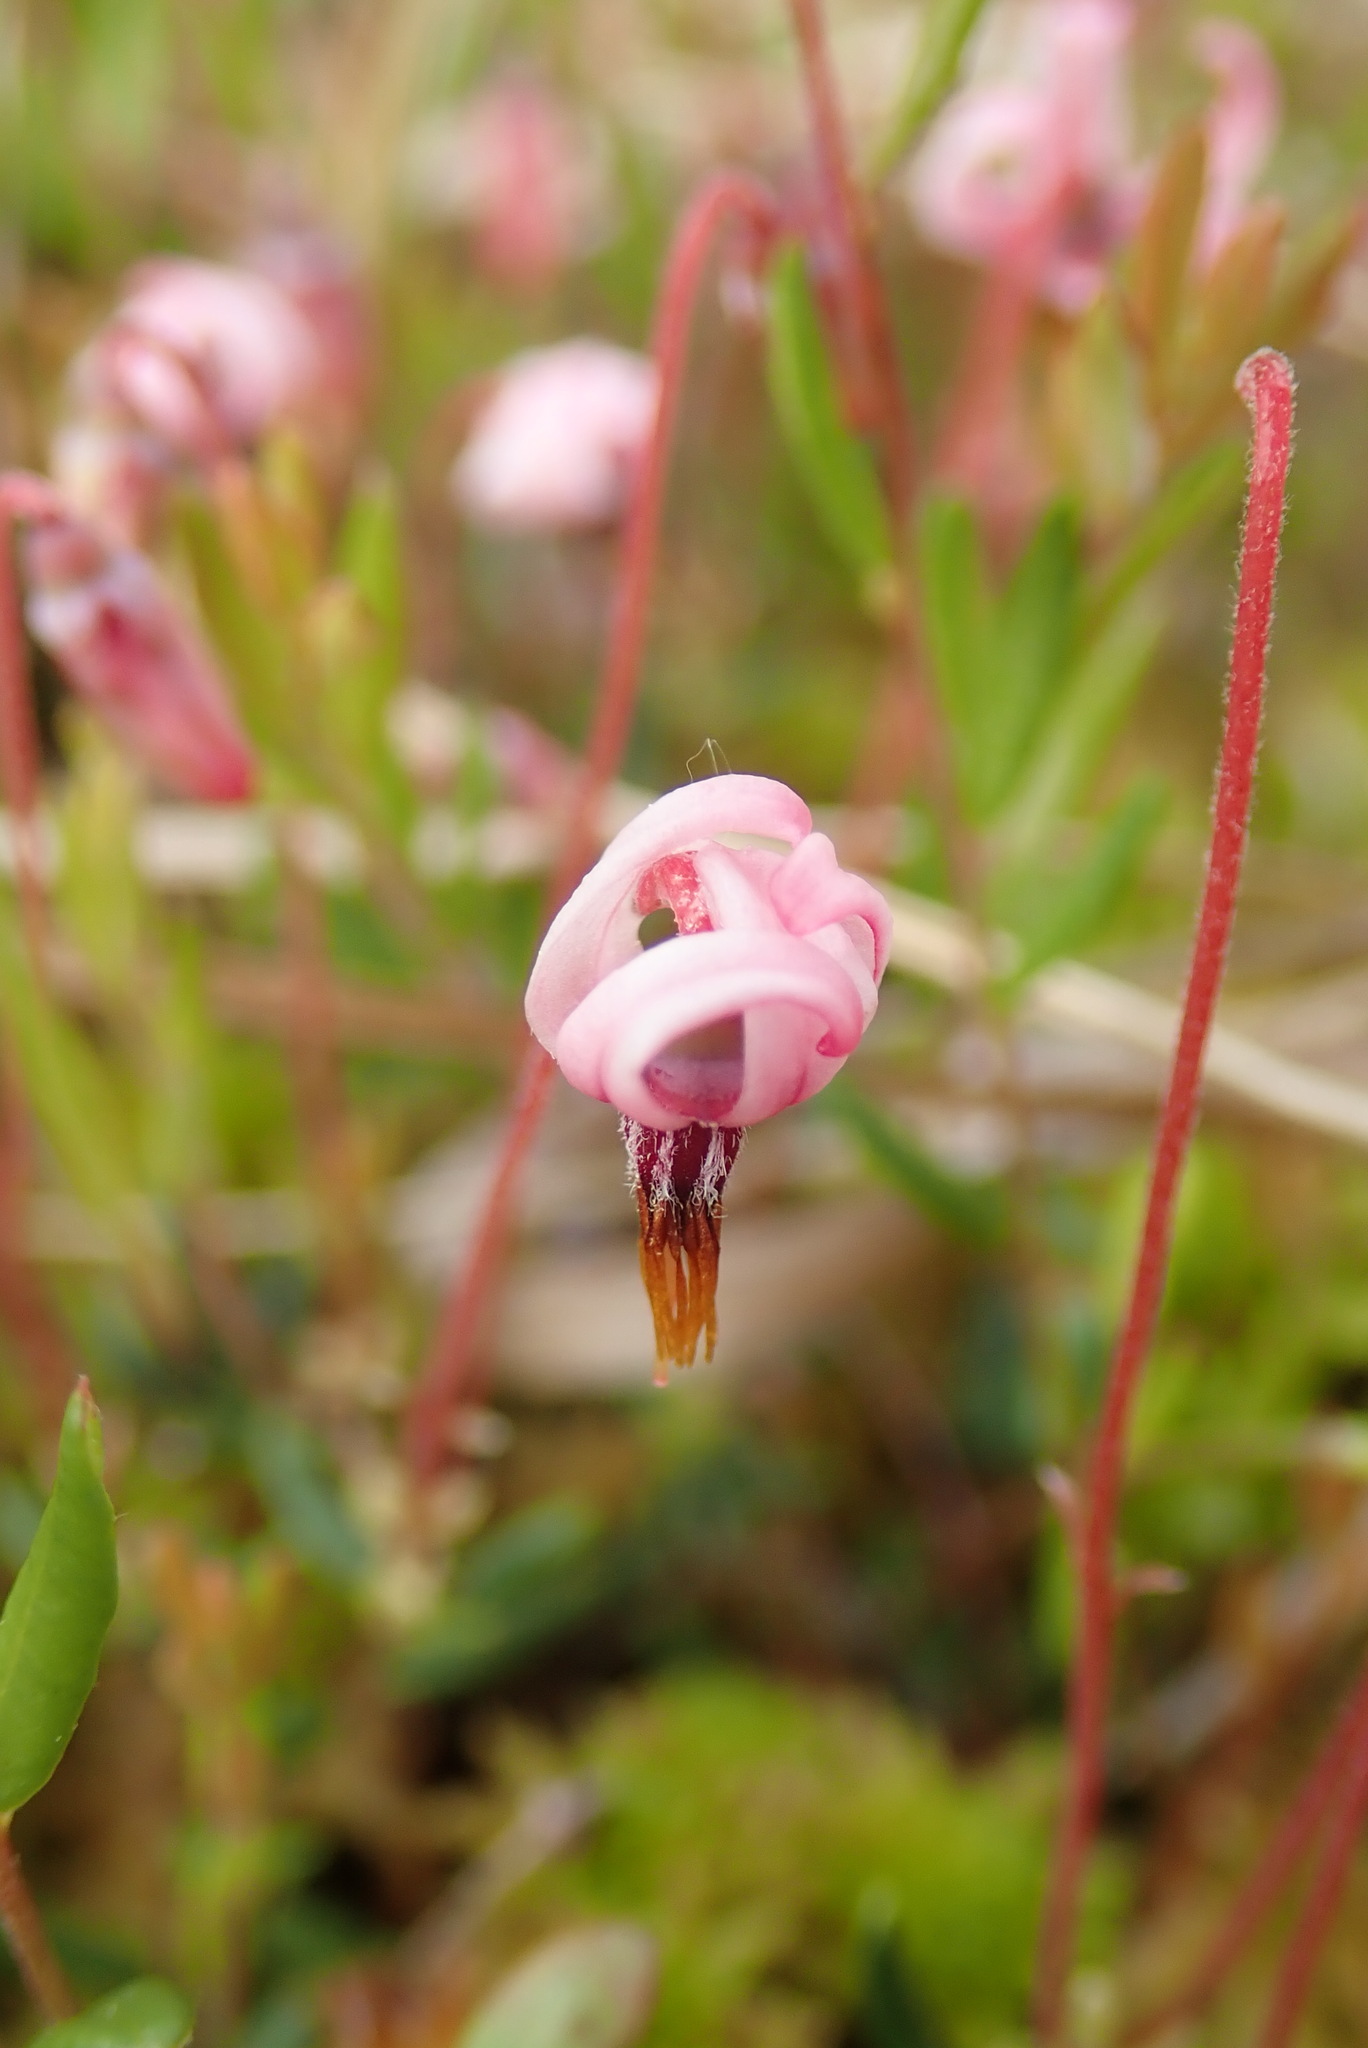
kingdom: Plantae
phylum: Tracheophyta
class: Magnoliopsida
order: Ericales
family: Ericaceae
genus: Vaccinium
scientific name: Vaccinium oxycoccos
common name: Cranberry
